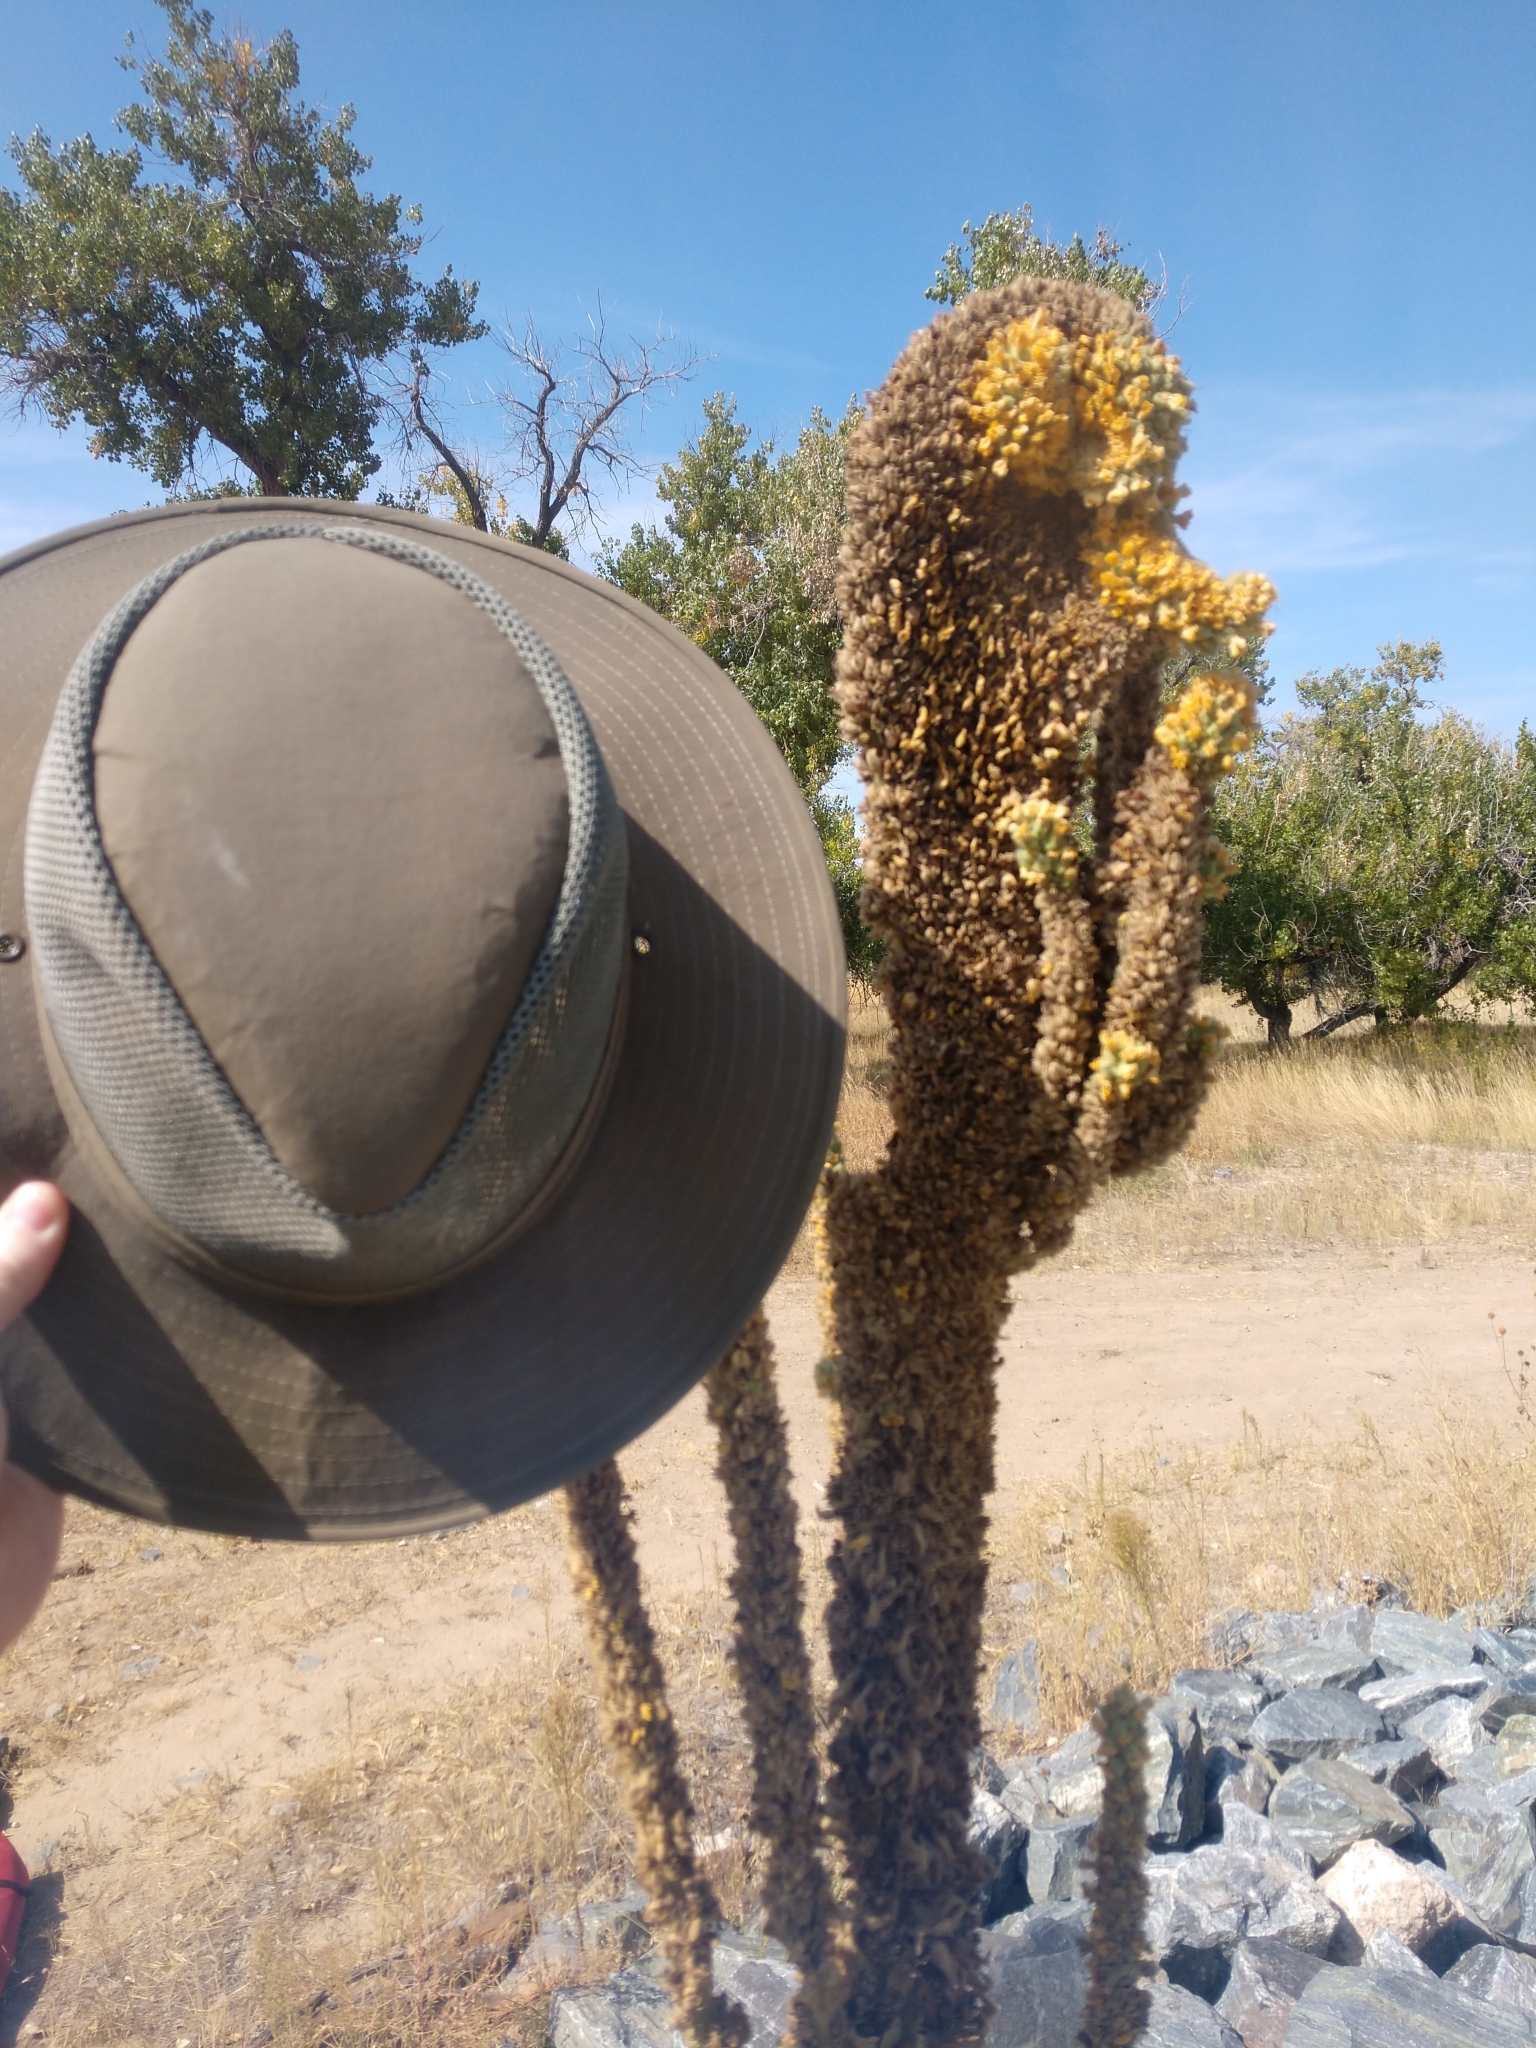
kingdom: Plantae
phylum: Tracheophyta
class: Magnoliopsida
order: Lamiales
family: Scrophulariaceae
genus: Verbascum
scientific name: Verbascum thapsus
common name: Common mullein
